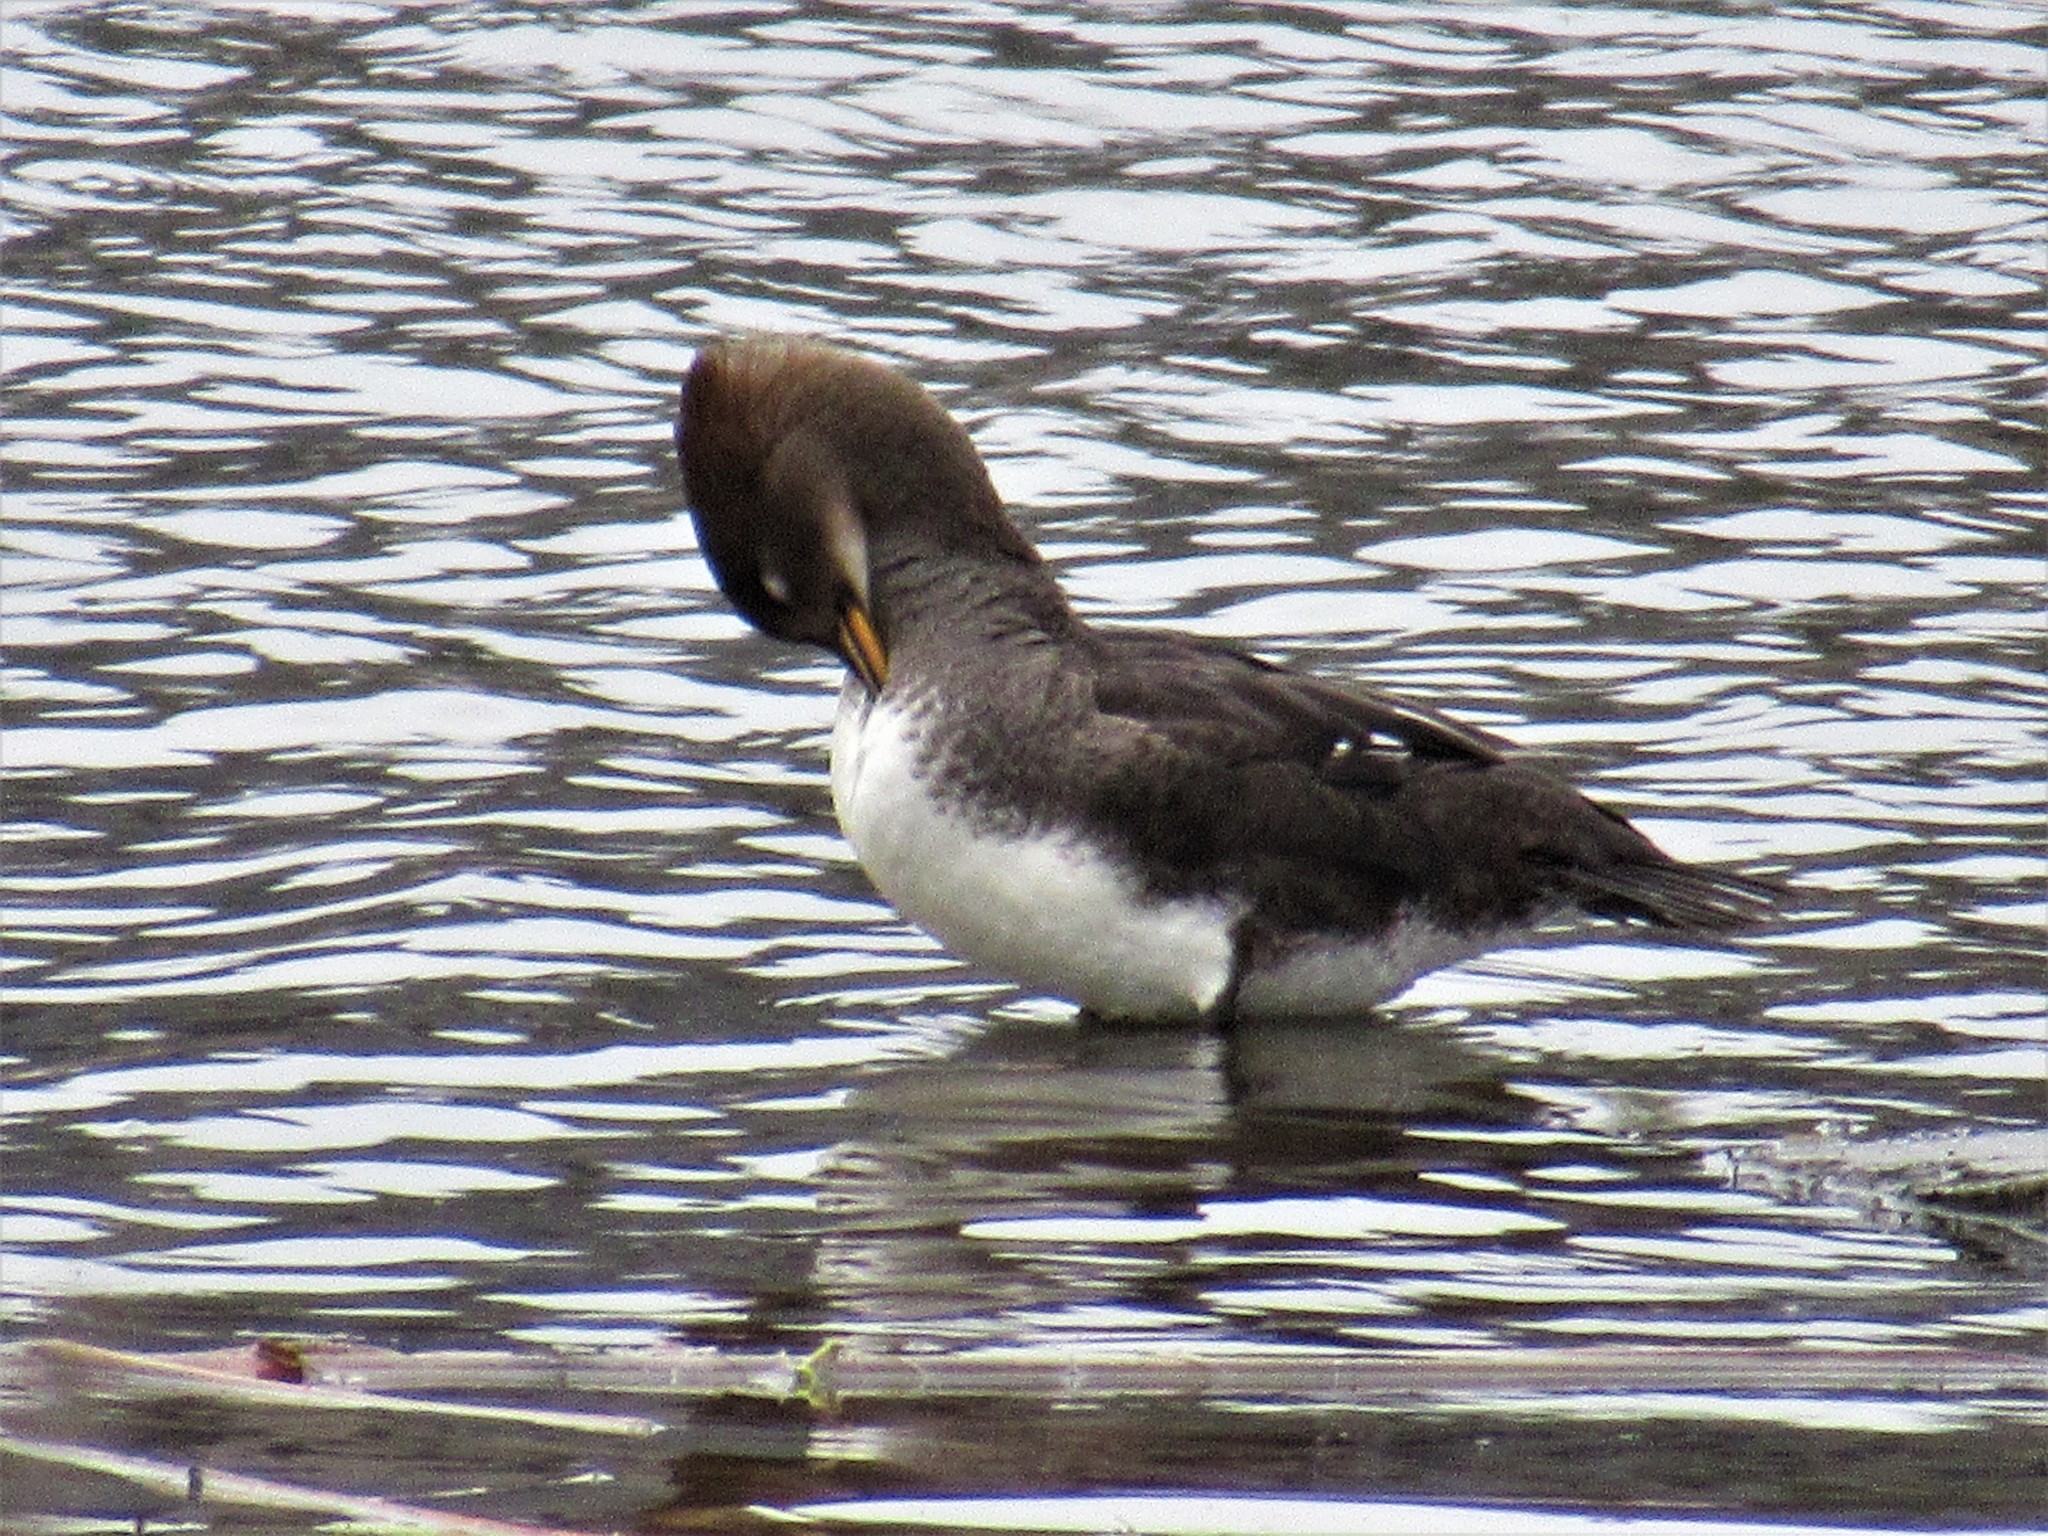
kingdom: Animalia
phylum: Chordata
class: Aves
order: Anseriformes
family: Anatidae
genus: Lophodytes
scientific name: Lophodytes cucullatus
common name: Hooded merganser
